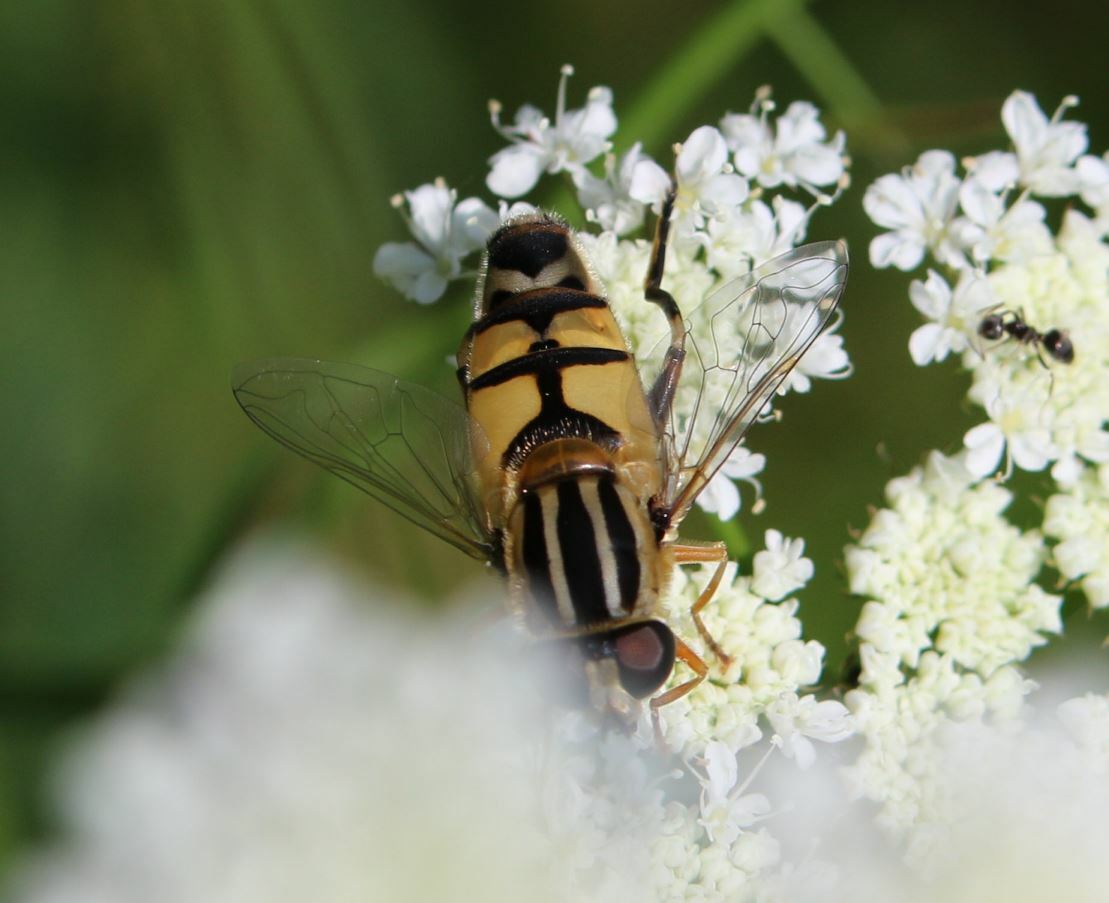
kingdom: Animalia
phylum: Arthropoda
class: Insecta
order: Diptera
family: Syrphidae
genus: Helophilus
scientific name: Helophilus trivittatus
